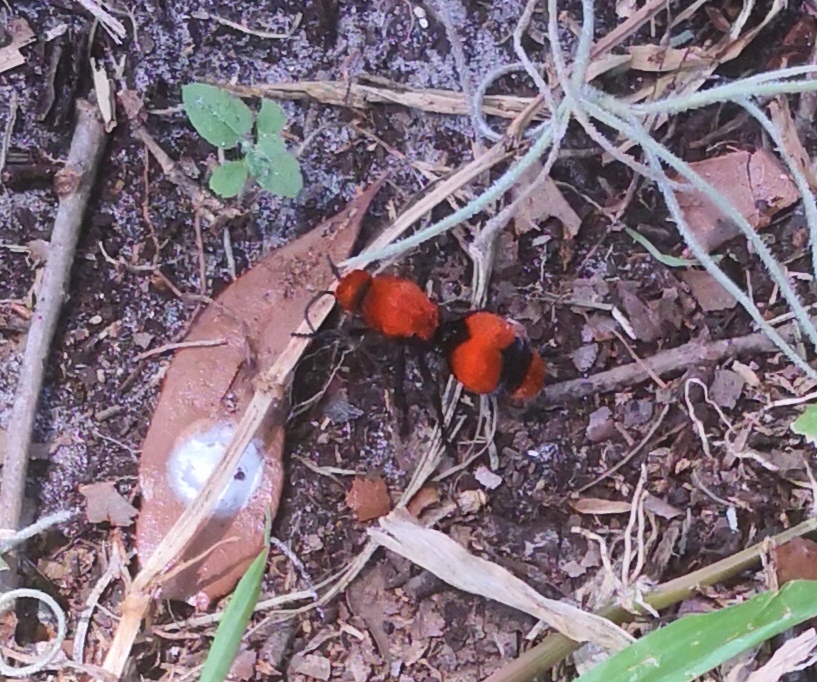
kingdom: Animalia
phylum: Arthropoda
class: Insecta
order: Hymenoptera
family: Mutillidae
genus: Dasymutilla
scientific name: Dasymutilla occidentalis
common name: Common eastern velvet ant
